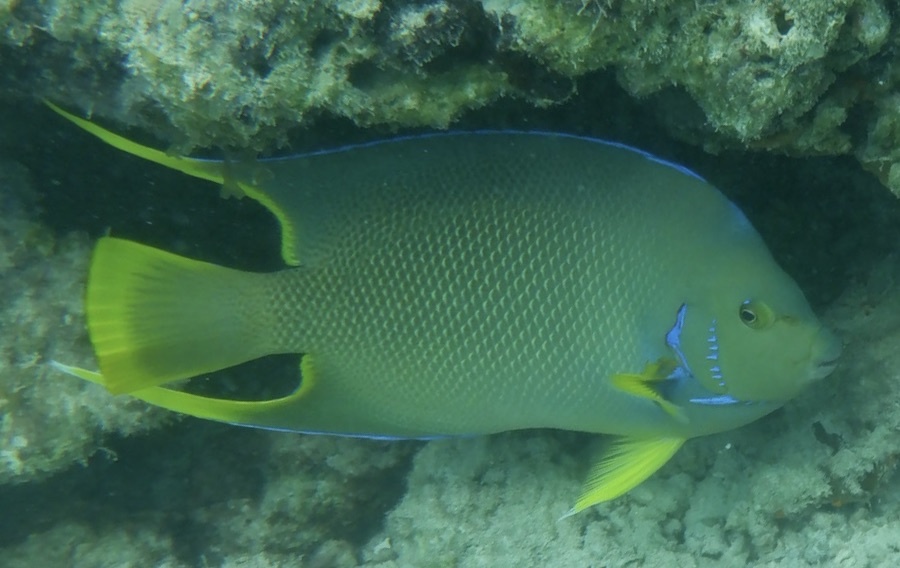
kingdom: Animalia
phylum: Chordata
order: Perciformes
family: Pomacanthidae
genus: Holacanthus
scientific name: Holacanthus bermudensis
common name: Blue angelfish
